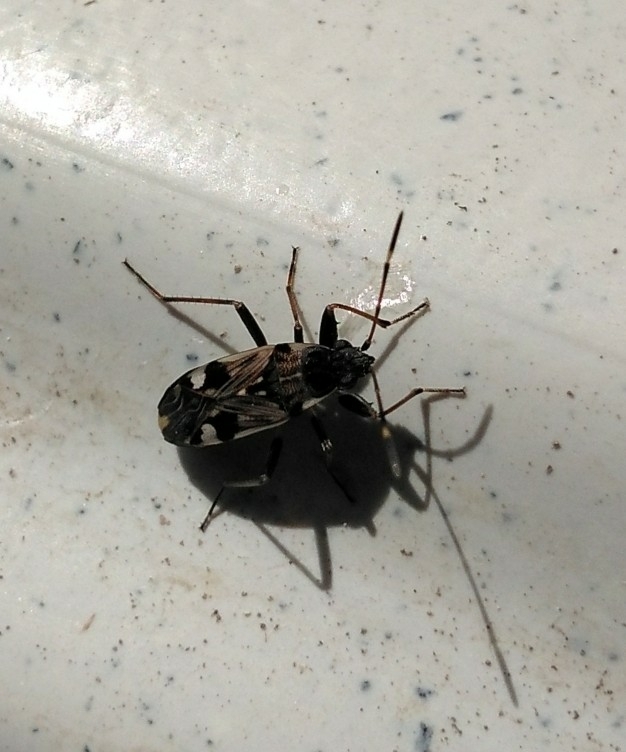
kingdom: Animalia
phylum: Arthropoda
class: Insecta
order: Hemiptera
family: Rhyparochromidae
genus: Beosus
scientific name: Beosus maritimus
